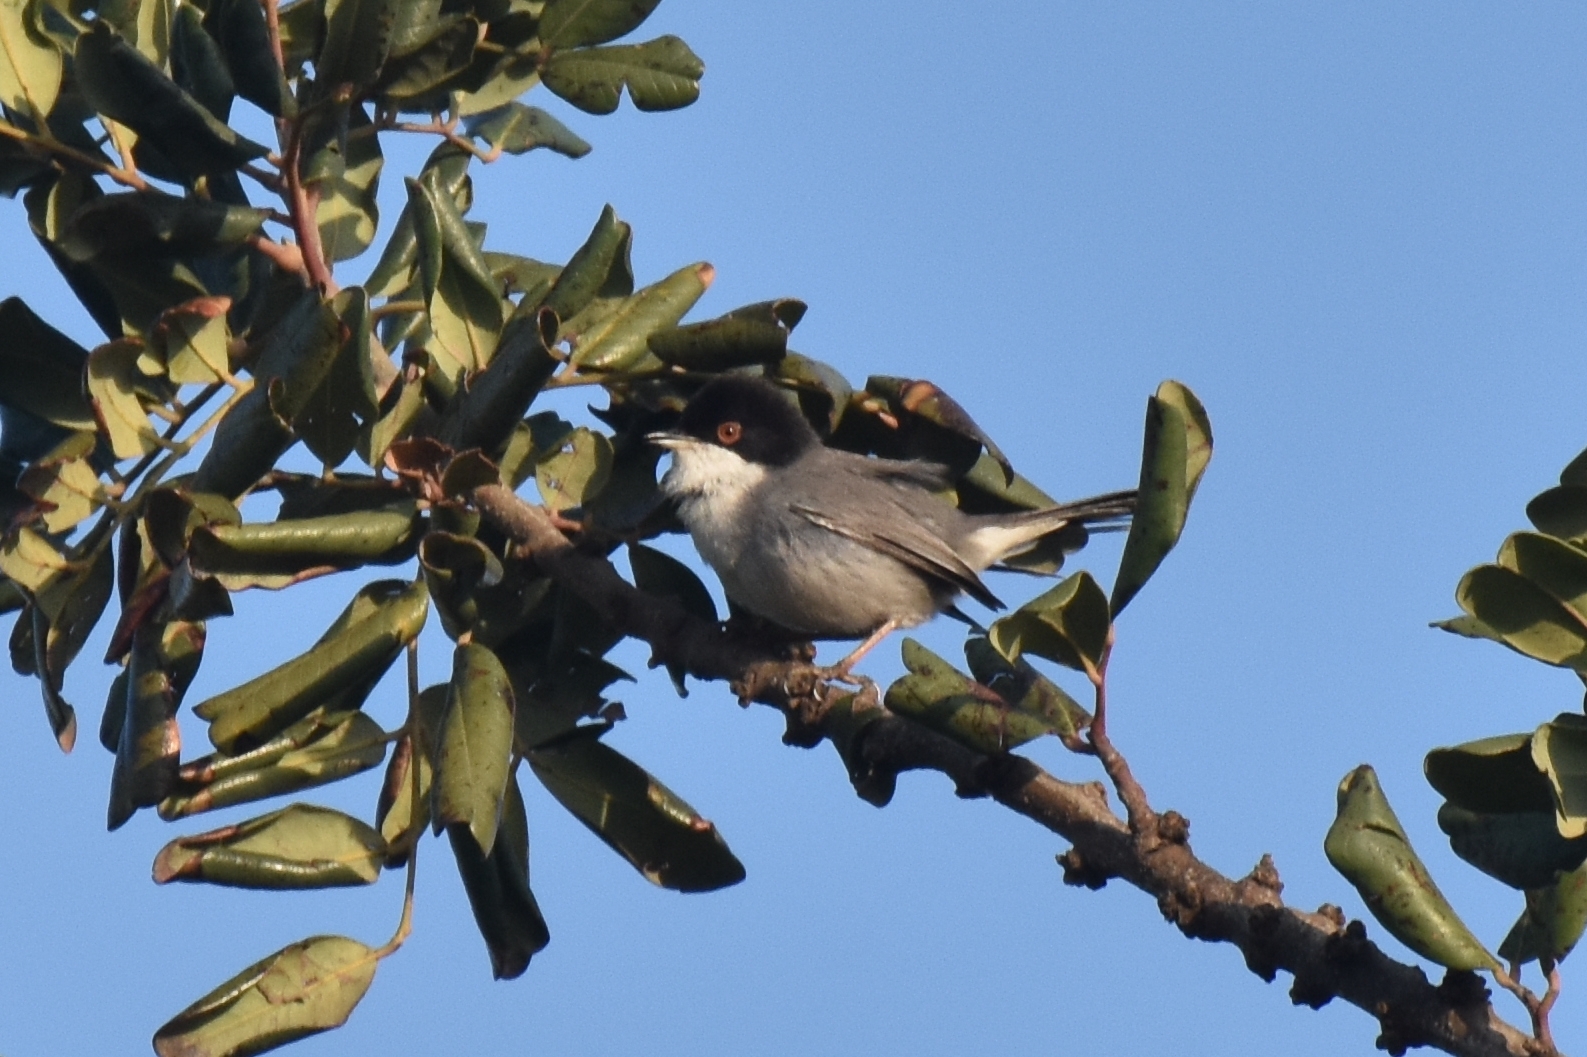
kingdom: Animalia
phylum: Chordata
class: Aves
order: Passeriformes
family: Sylviidae
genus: Curruca
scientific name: Curruca melanocephala
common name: Sardinian warbler
